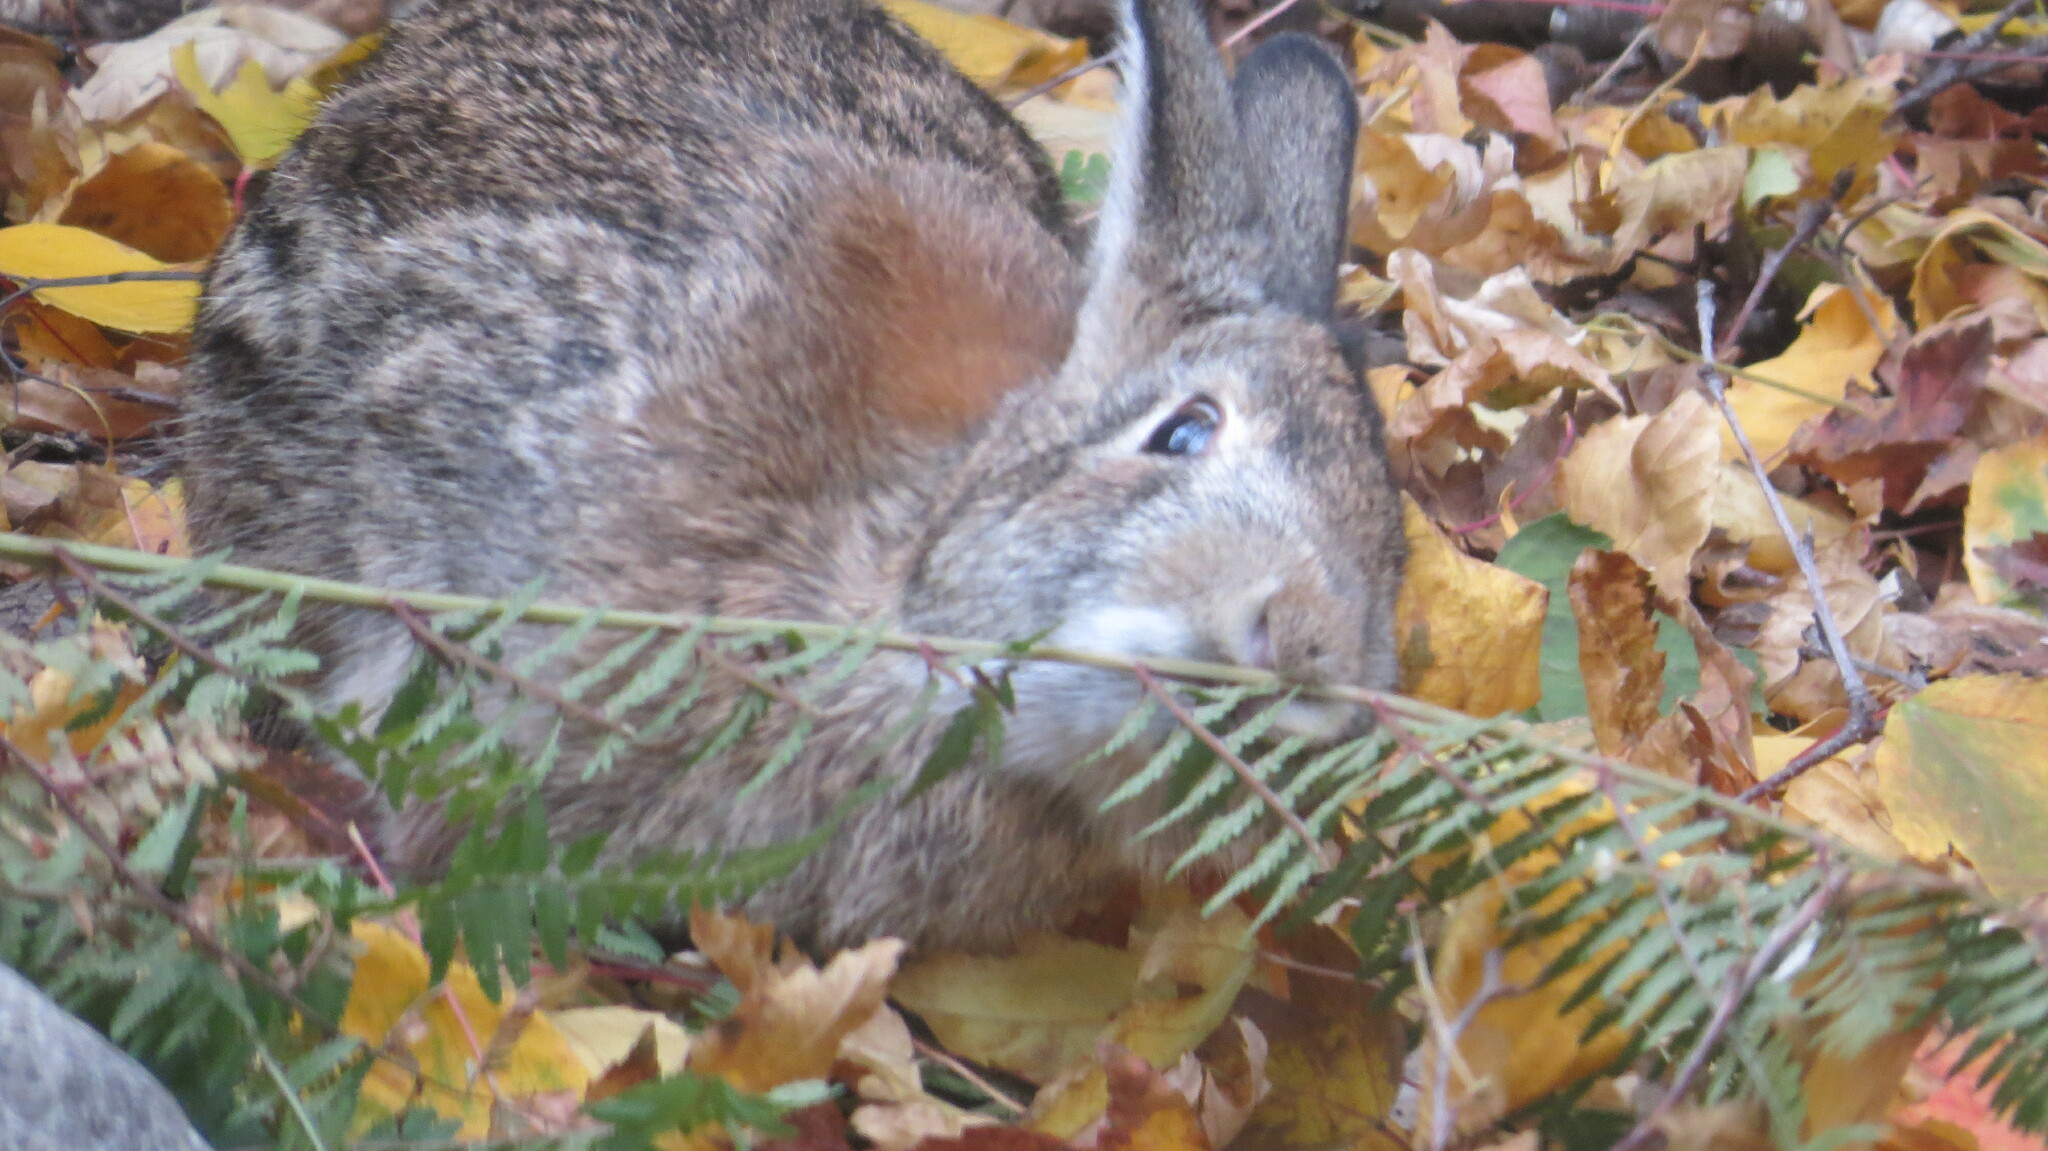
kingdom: Animalia
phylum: Chordata
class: Mammalia
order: Lagomorpha
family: Leporidae
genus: Sylvilagus
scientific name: Sylvilagus floridanus
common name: Eastern cottontail
